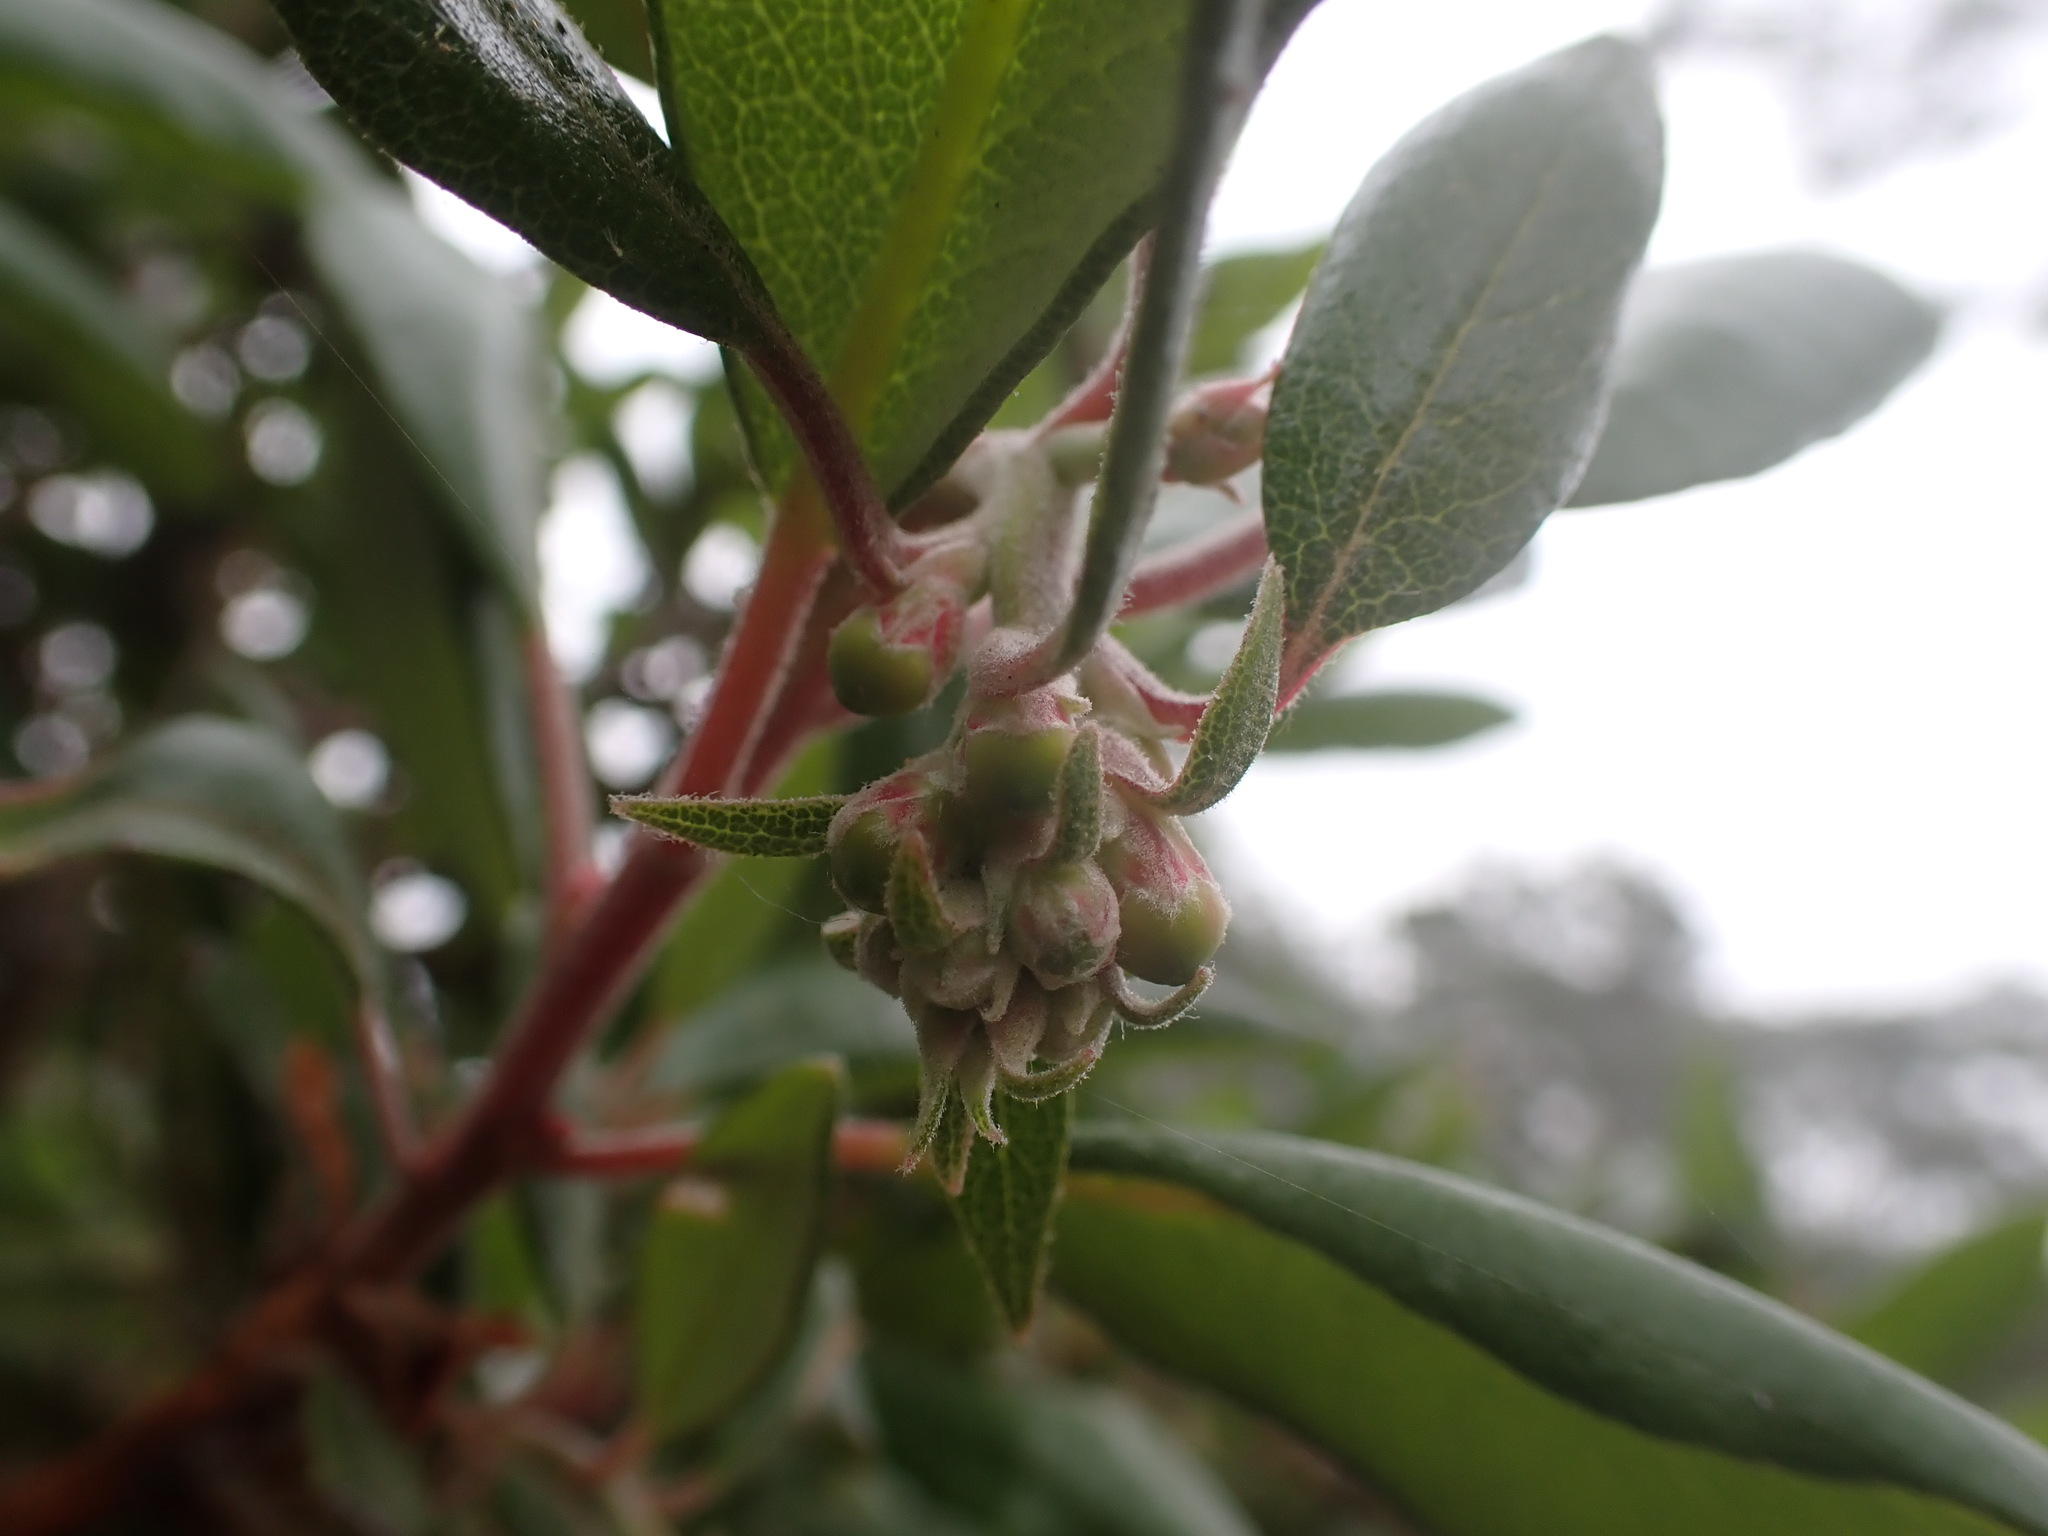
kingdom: Plantae
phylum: Tracheophyta
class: Magnoliopsida
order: Ericales
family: Ericaceae
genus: Arctostaphylos
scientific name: Arctostaphylos bicolor
